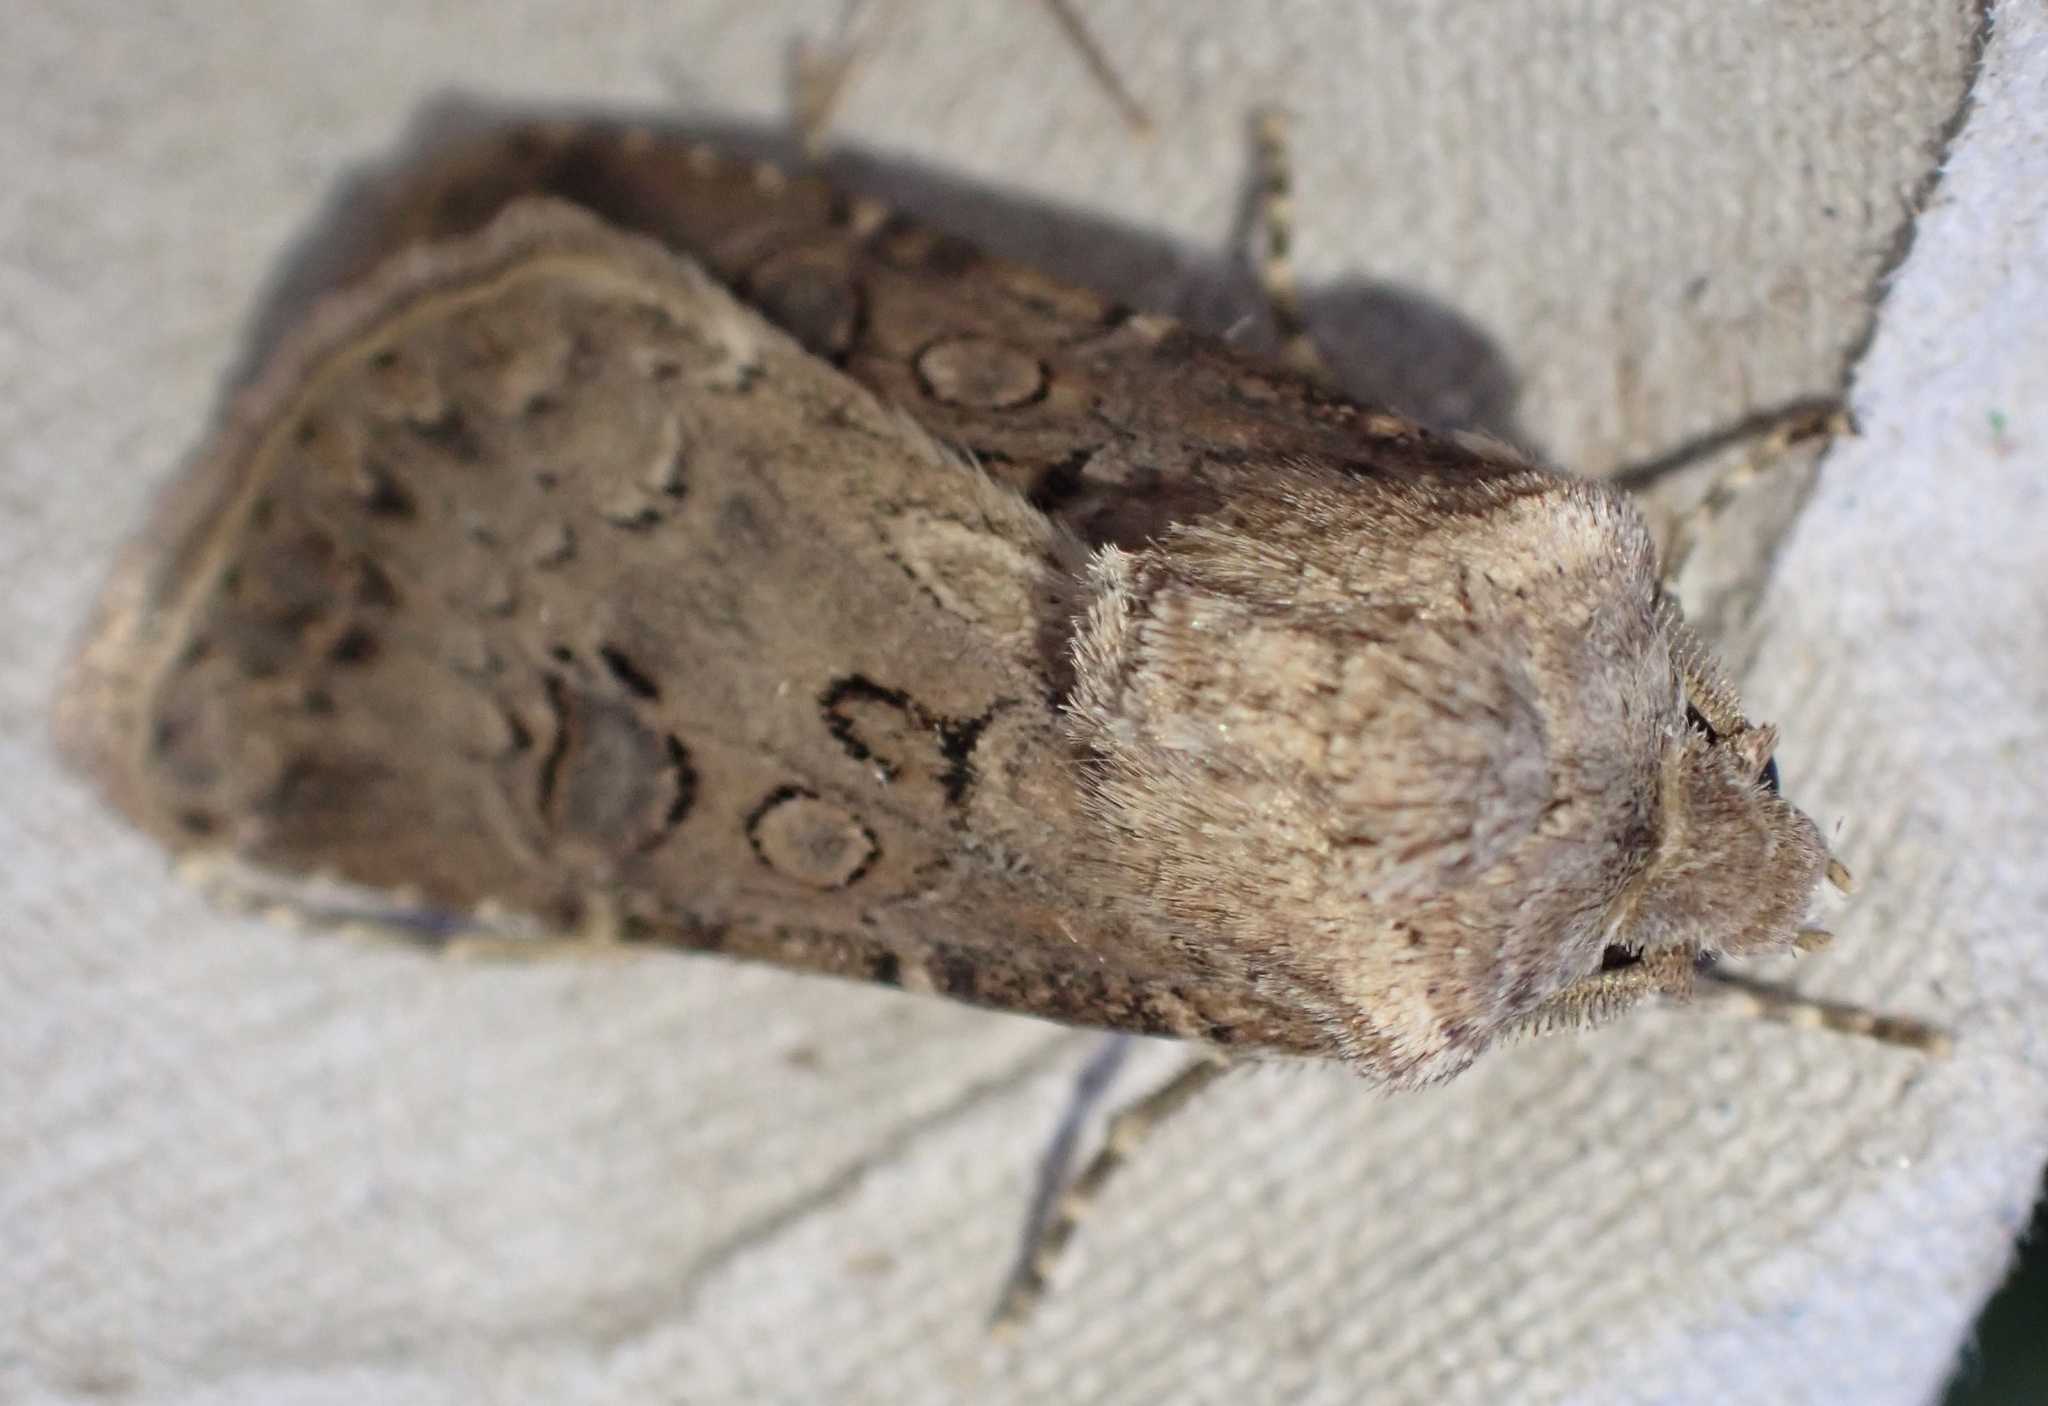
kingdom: Animalia
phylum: Arthropoda
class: Insecta
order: Lepidoptera
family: Noctuidae
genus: Agrotis
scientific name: Agrotis bigramma
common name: Great dart
